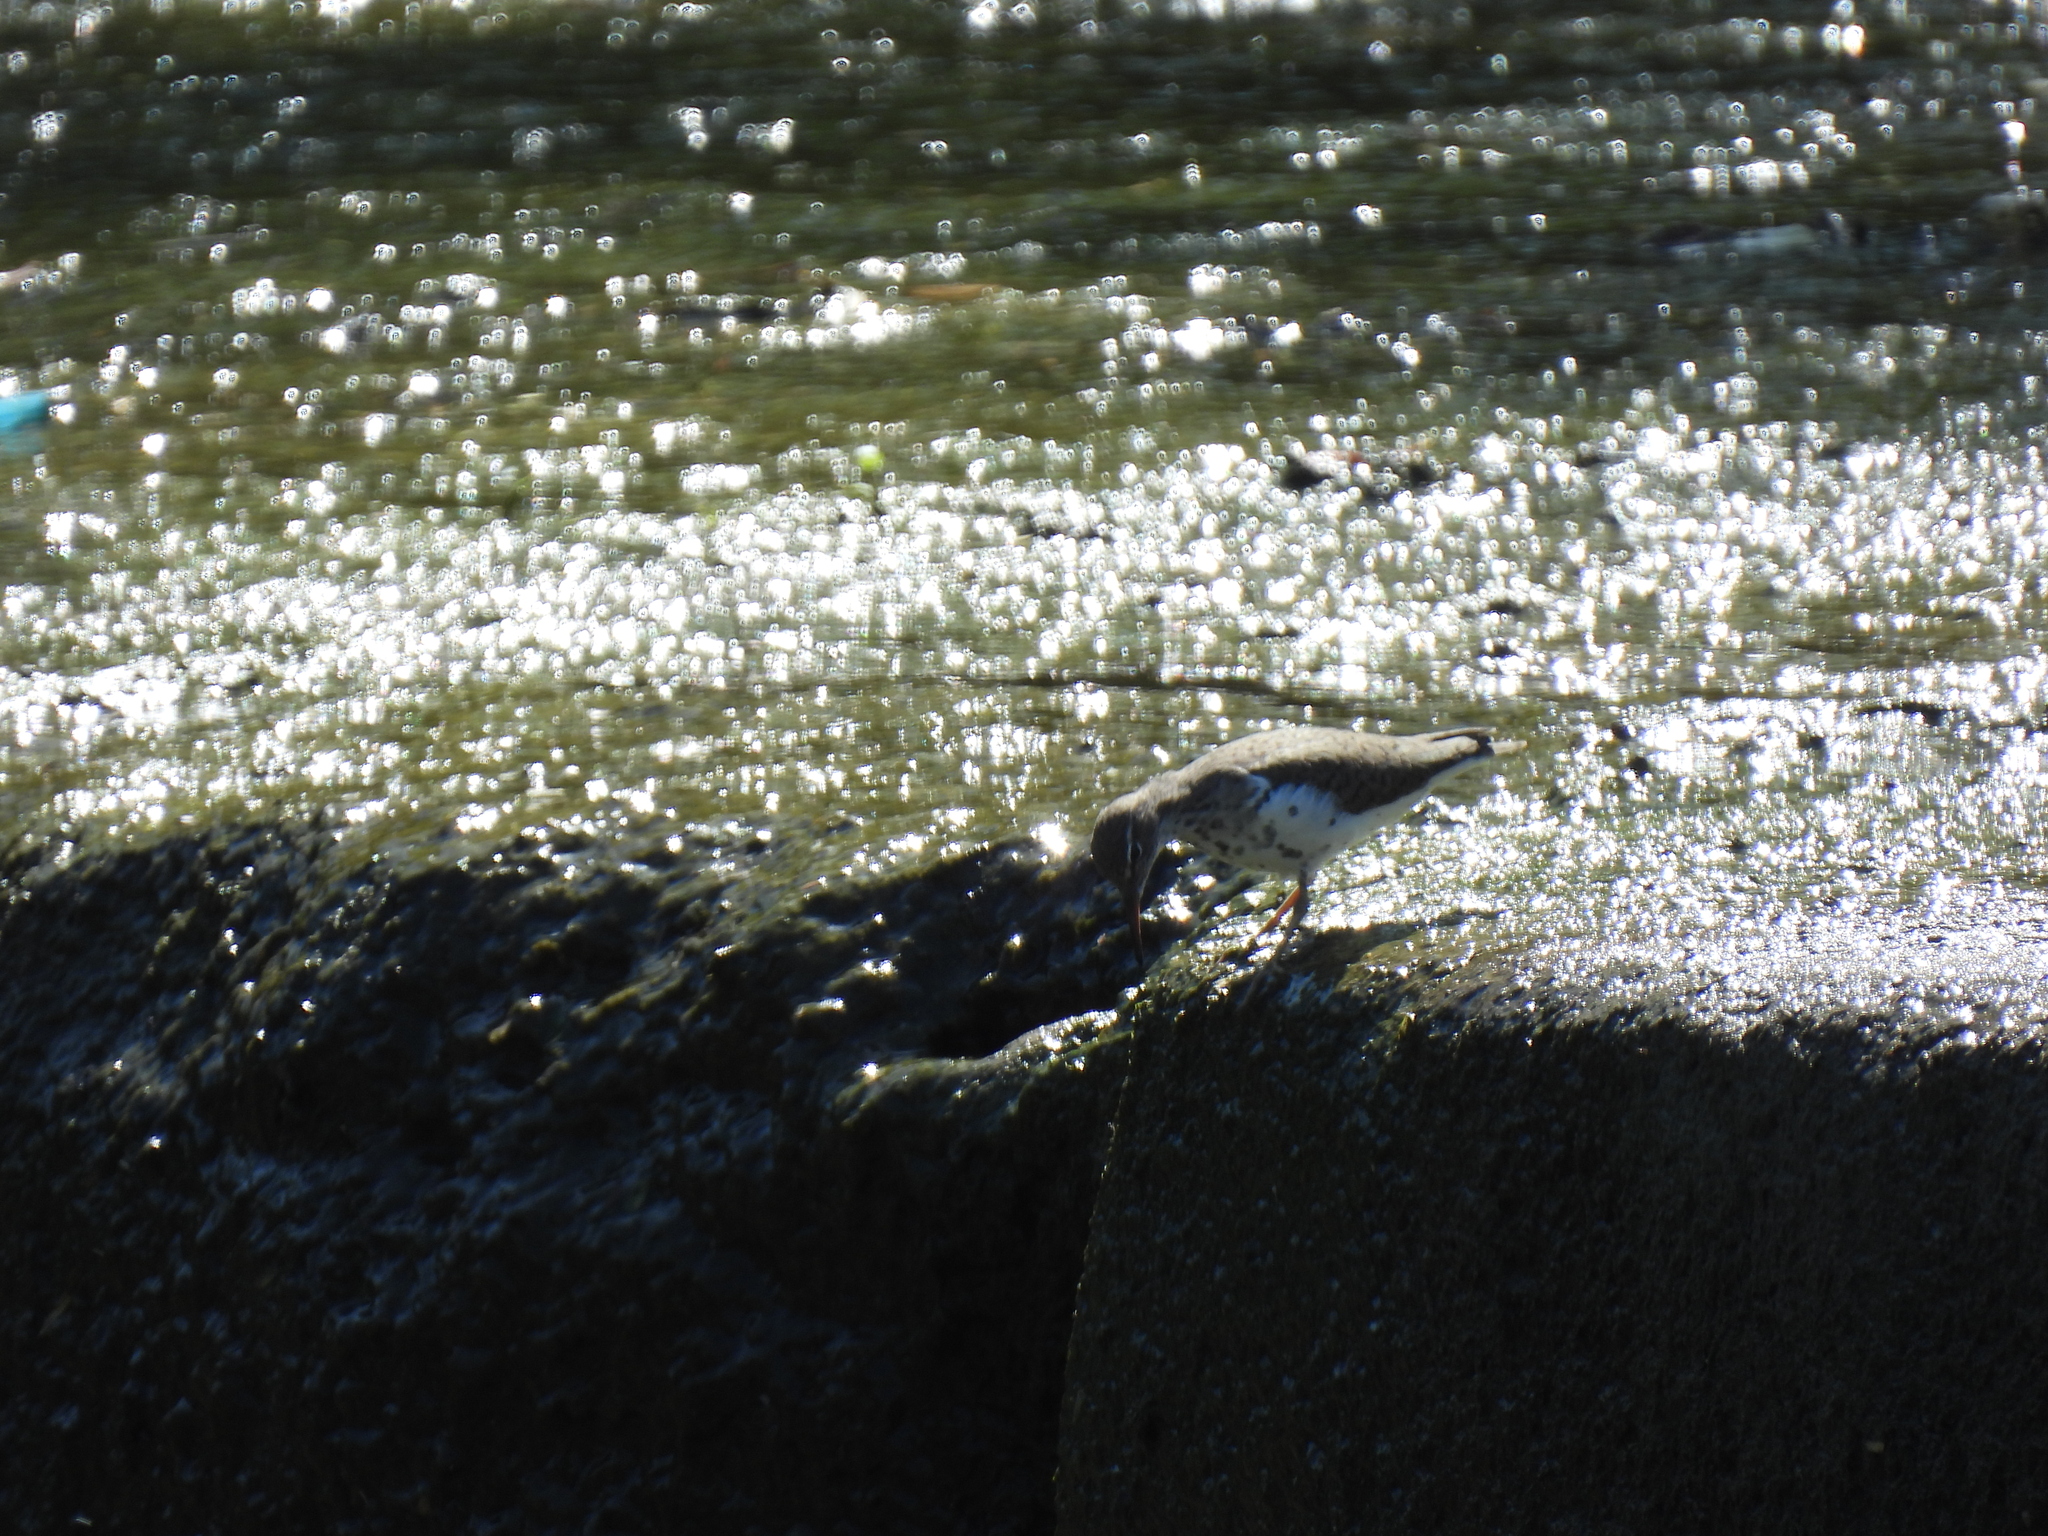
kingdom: Animalia
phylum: Chordata
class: Aves
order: Charadriiformes
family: Scolopacidae
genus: Actitis
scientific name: Actitis macularius
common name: Spotted sandpiper
